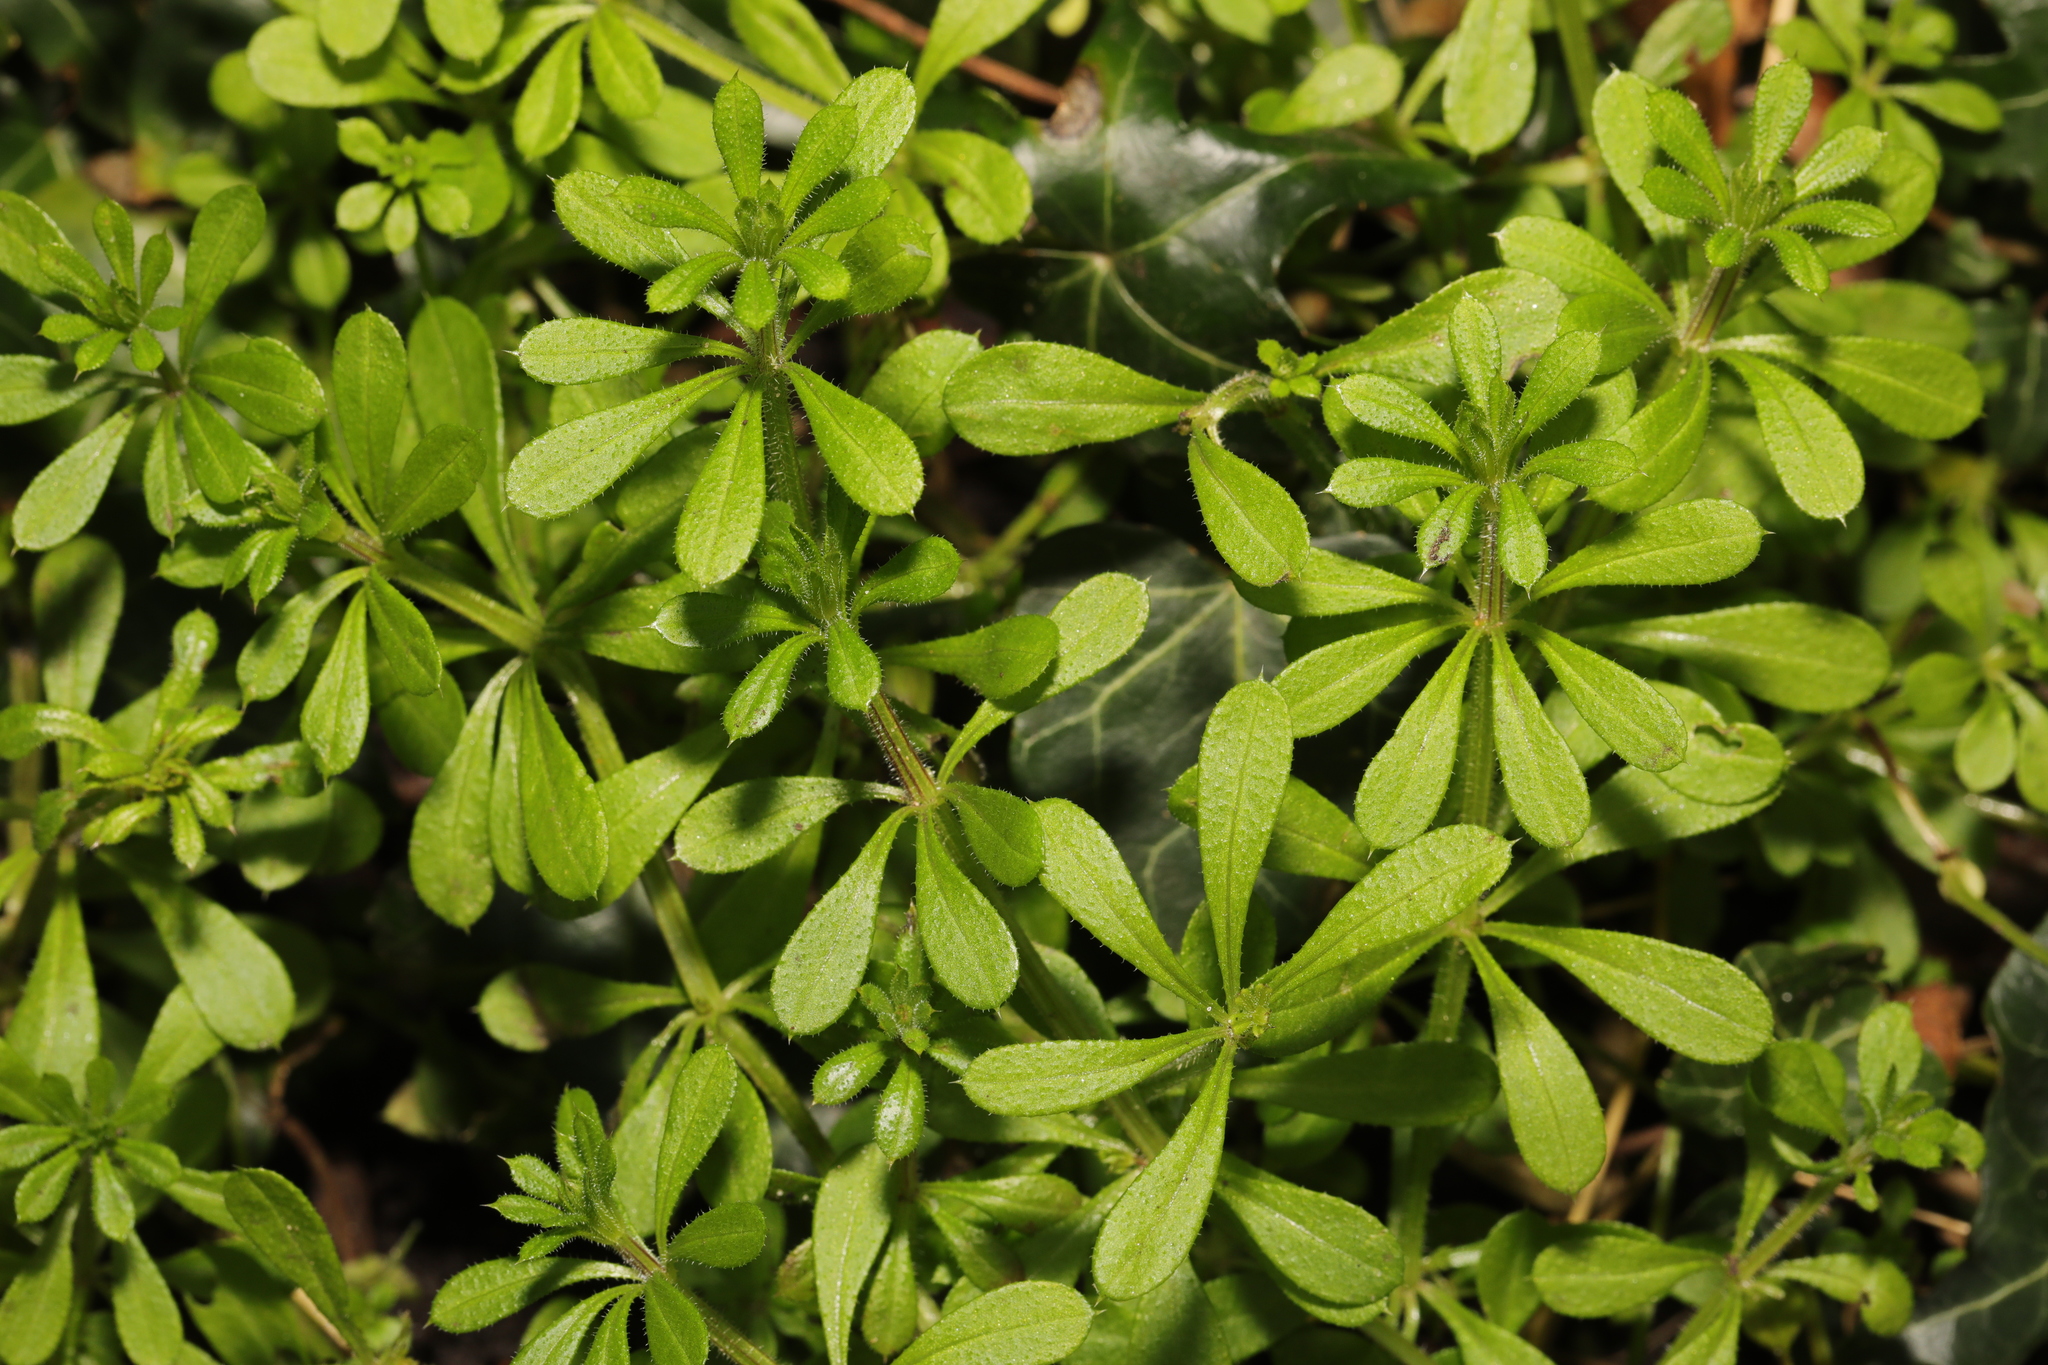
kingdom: Plantae
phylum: Tracheophyta
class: Magnoliopsida
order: Gentianales
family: Rubiaceae
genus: Galium
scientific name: Galium aparine
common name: Cleavers
